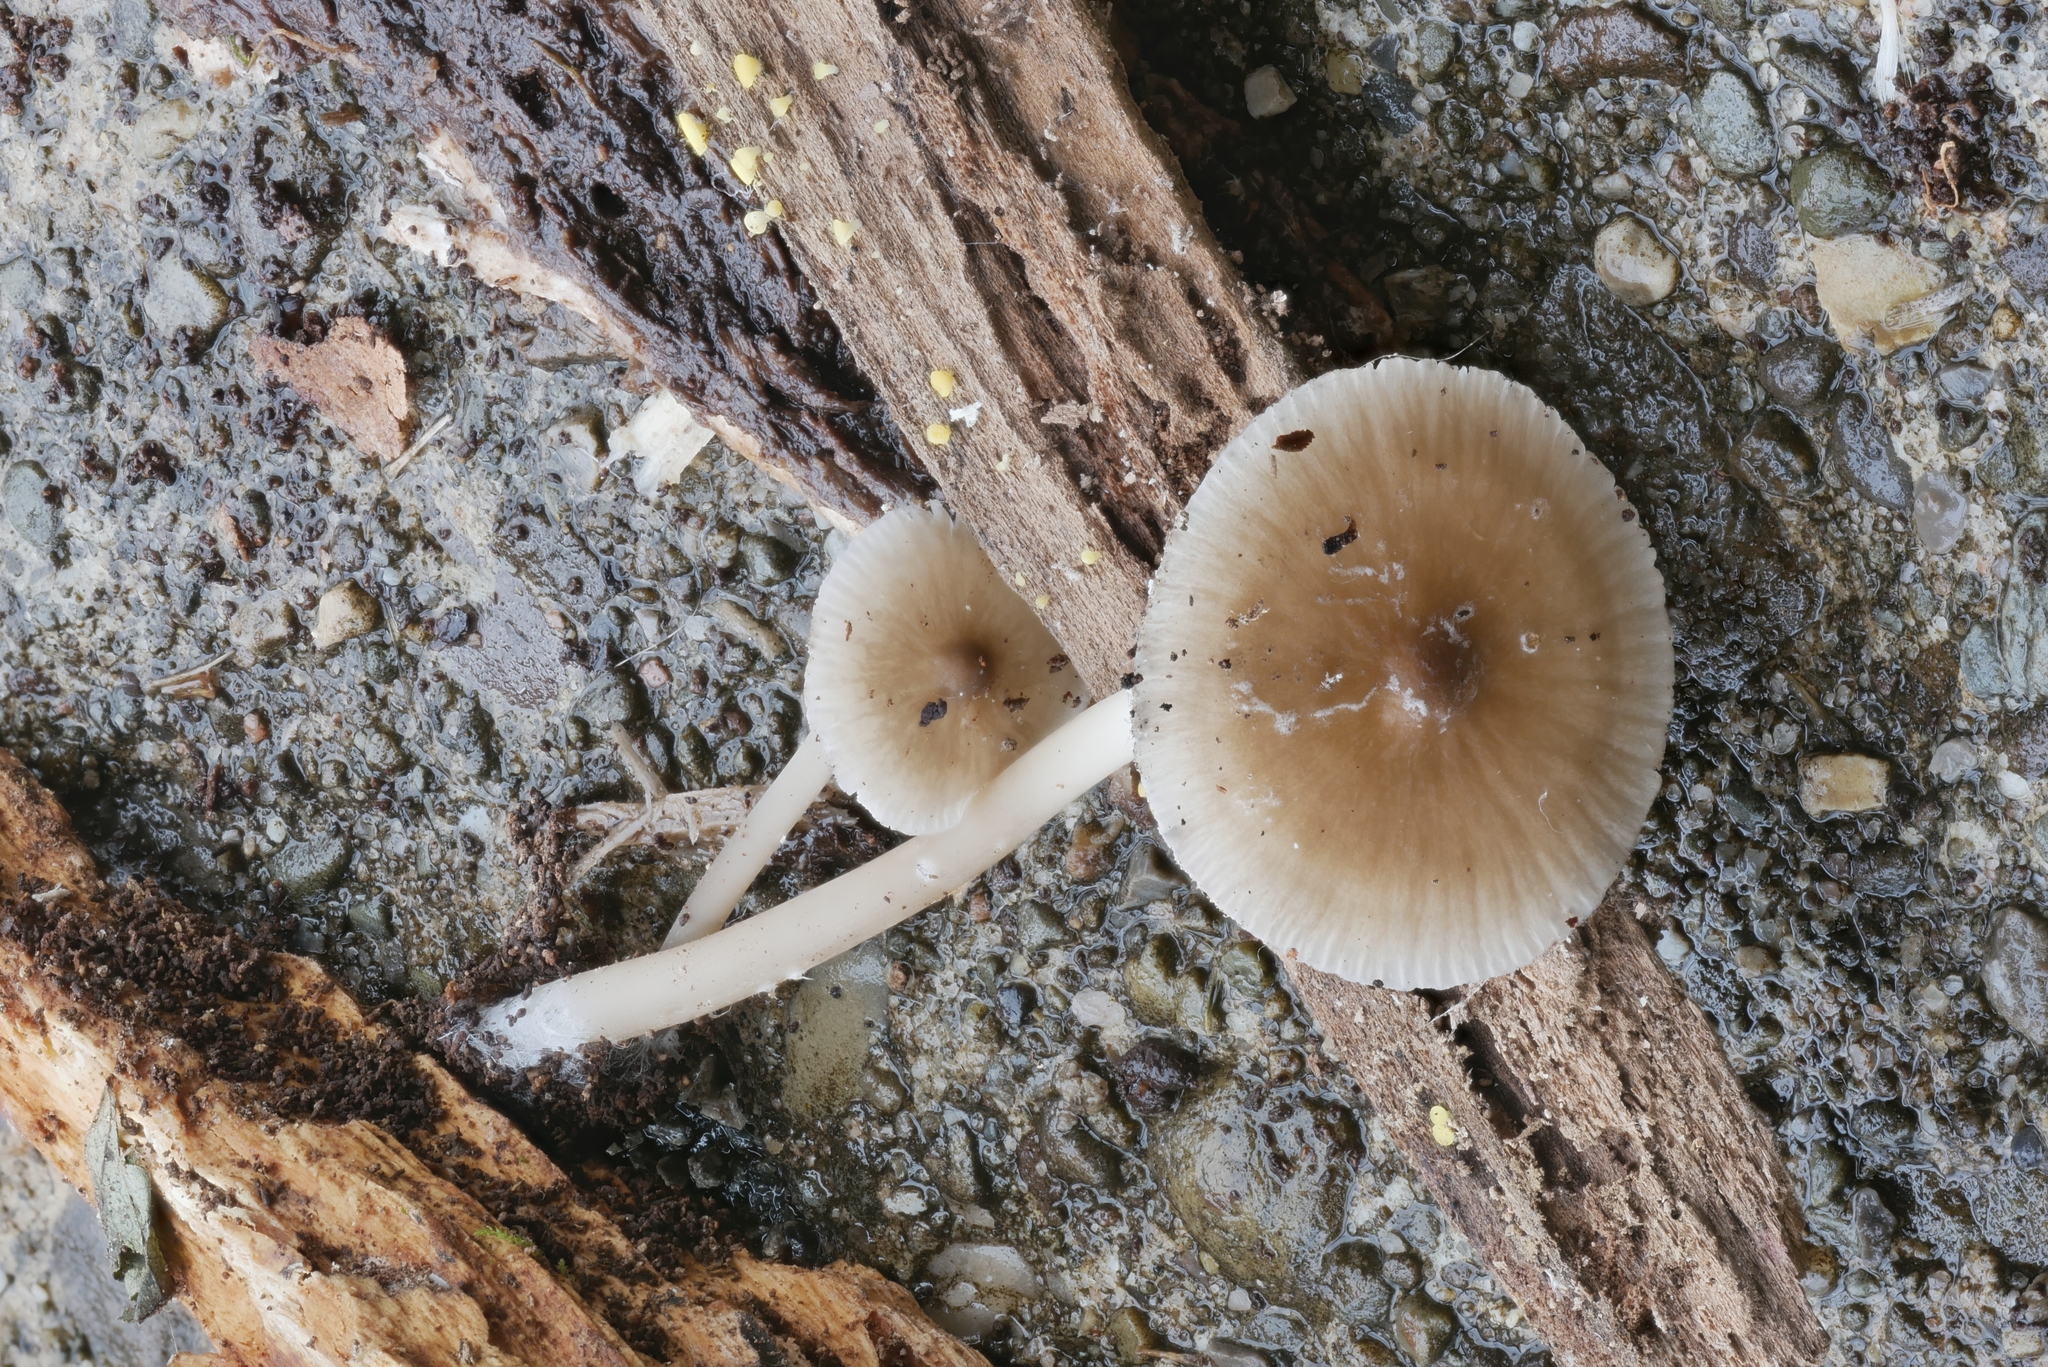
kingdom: Fungi
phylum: Basidiomycota
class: Agaricomycetes
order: Agaricales
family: Mycenaceae
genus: Mycena
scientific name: Mycena galericulata
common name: Bonnet mycena
